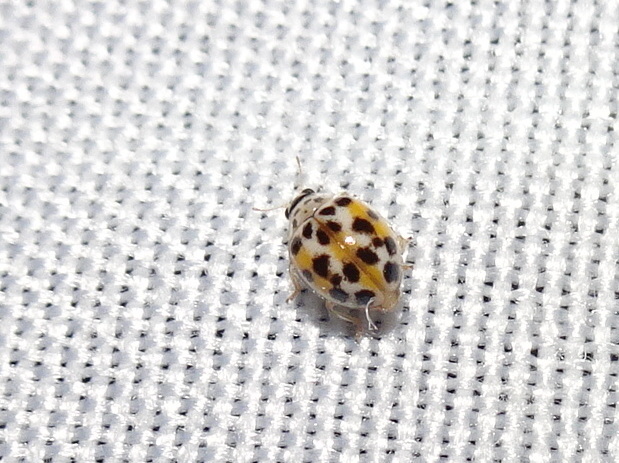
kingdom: Animalia
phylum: Arthropoda
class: Insecta
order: Coleoptera
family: Coccinellidae
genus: Psyllobora
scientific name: Psyllobora vigintimaculata
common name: Ladybird beetle
